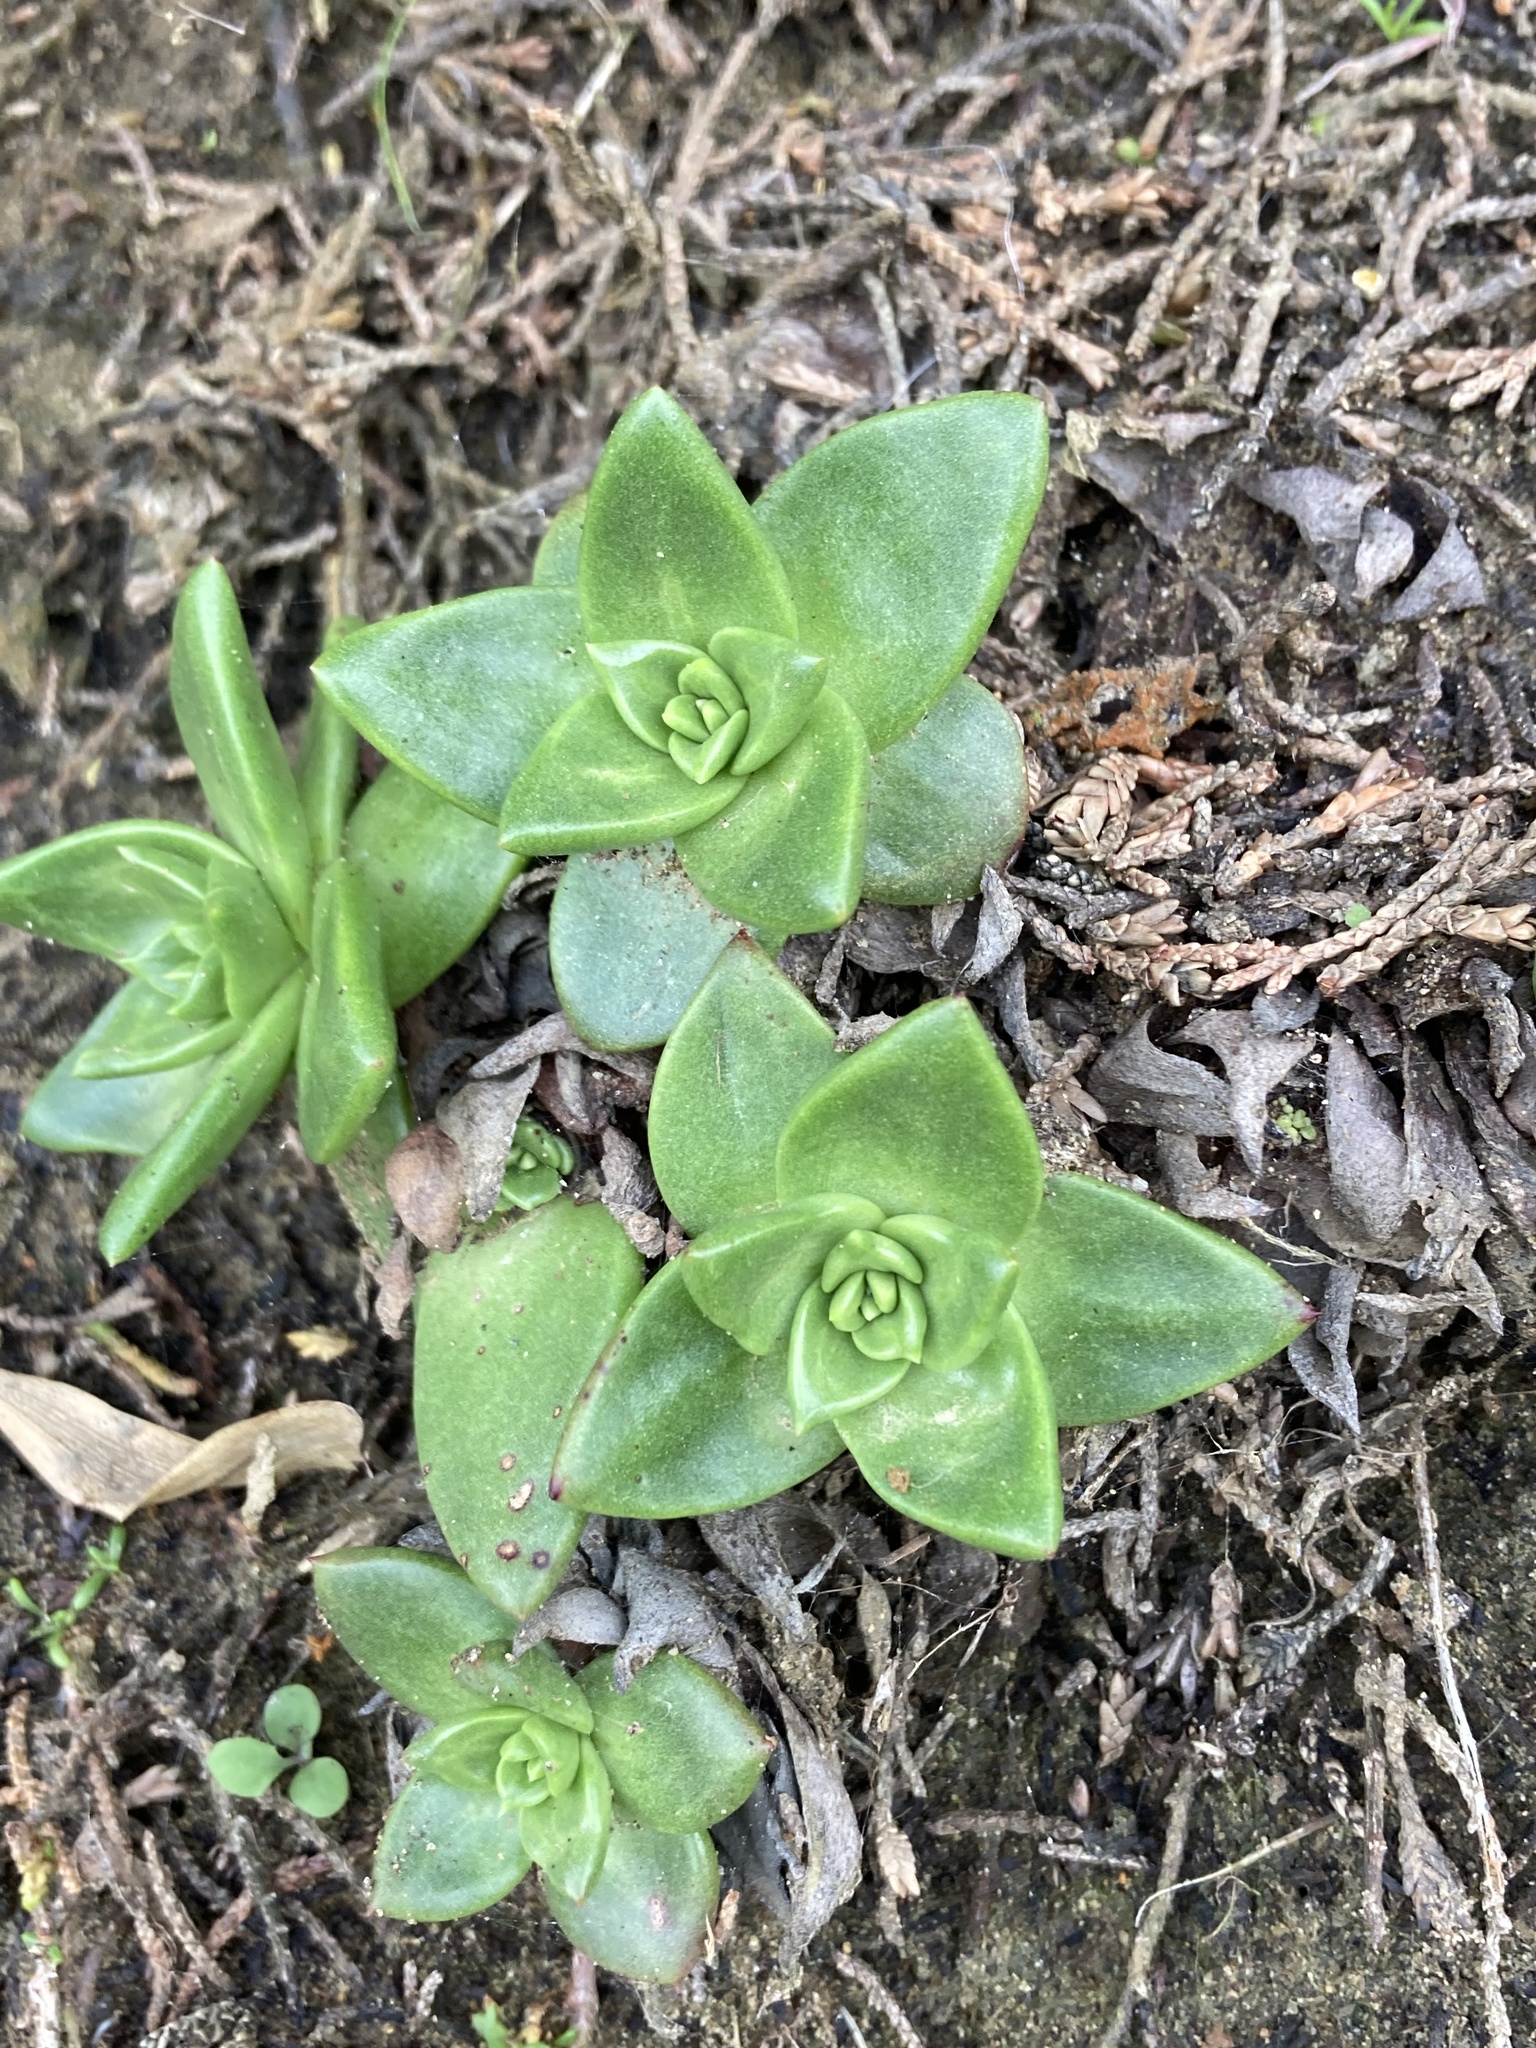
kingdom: Plantae
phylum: Tracheophyta
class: Magnoliopsida
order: Saxifragales
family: Crassulaceae
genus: Dudleya
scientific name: Dudleya farinosa
